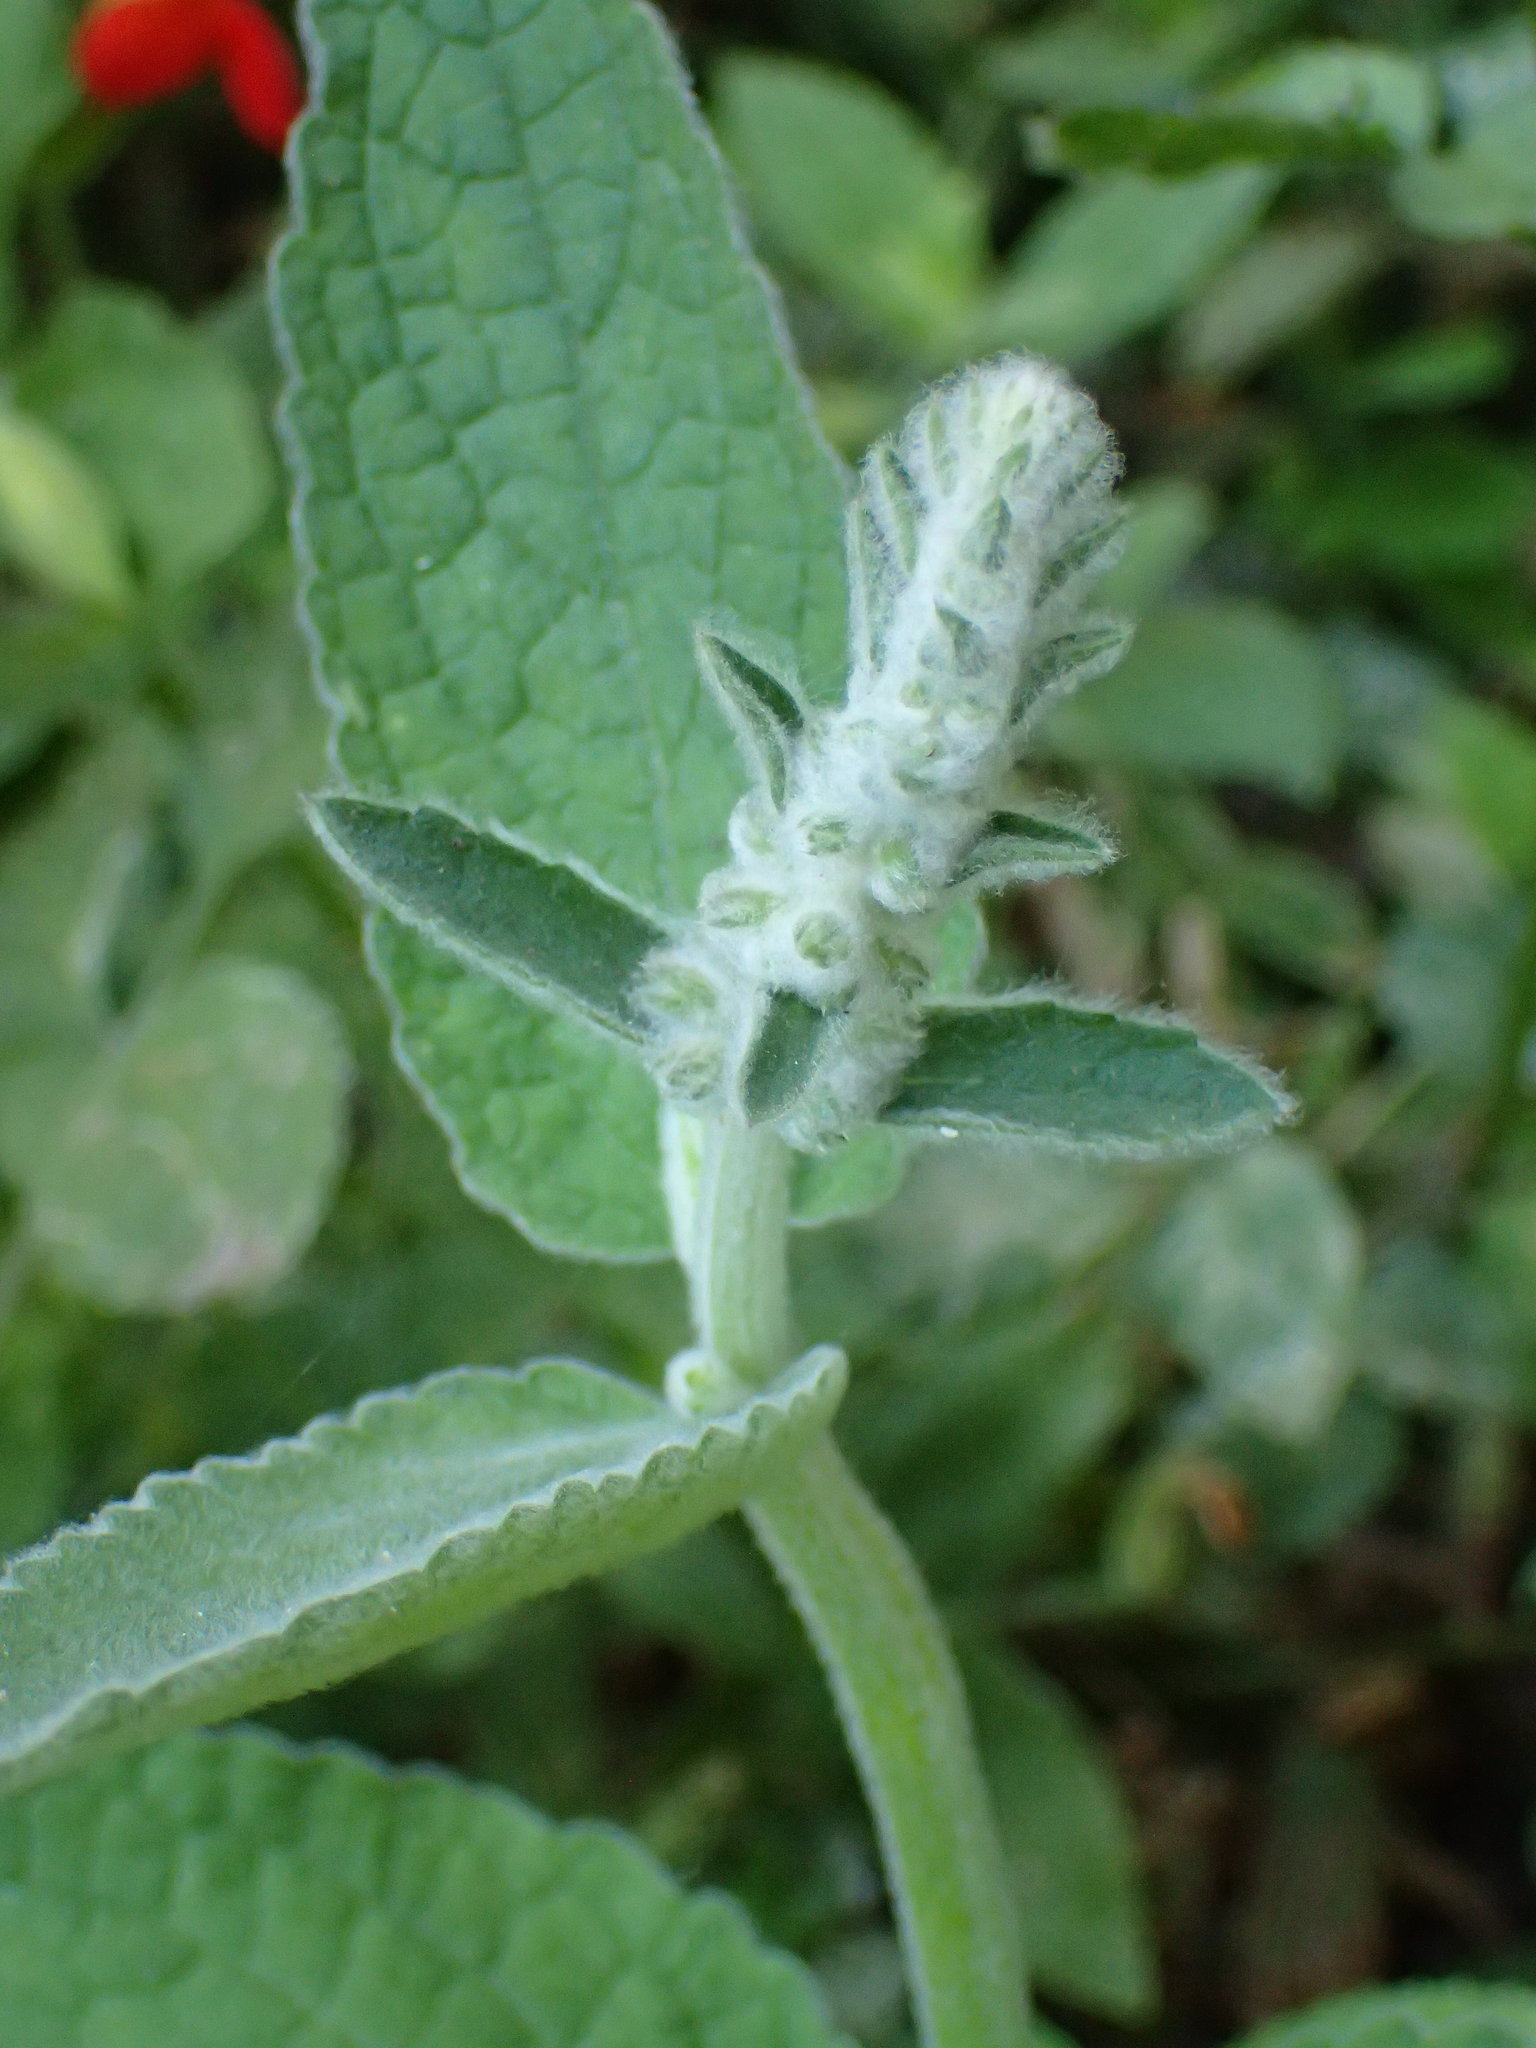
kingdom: Plantae
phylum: Tracheophyta
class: Magnoliopsida
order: Lamiales
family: Lamiaceae
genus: Stachys
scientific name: Stachys albens
